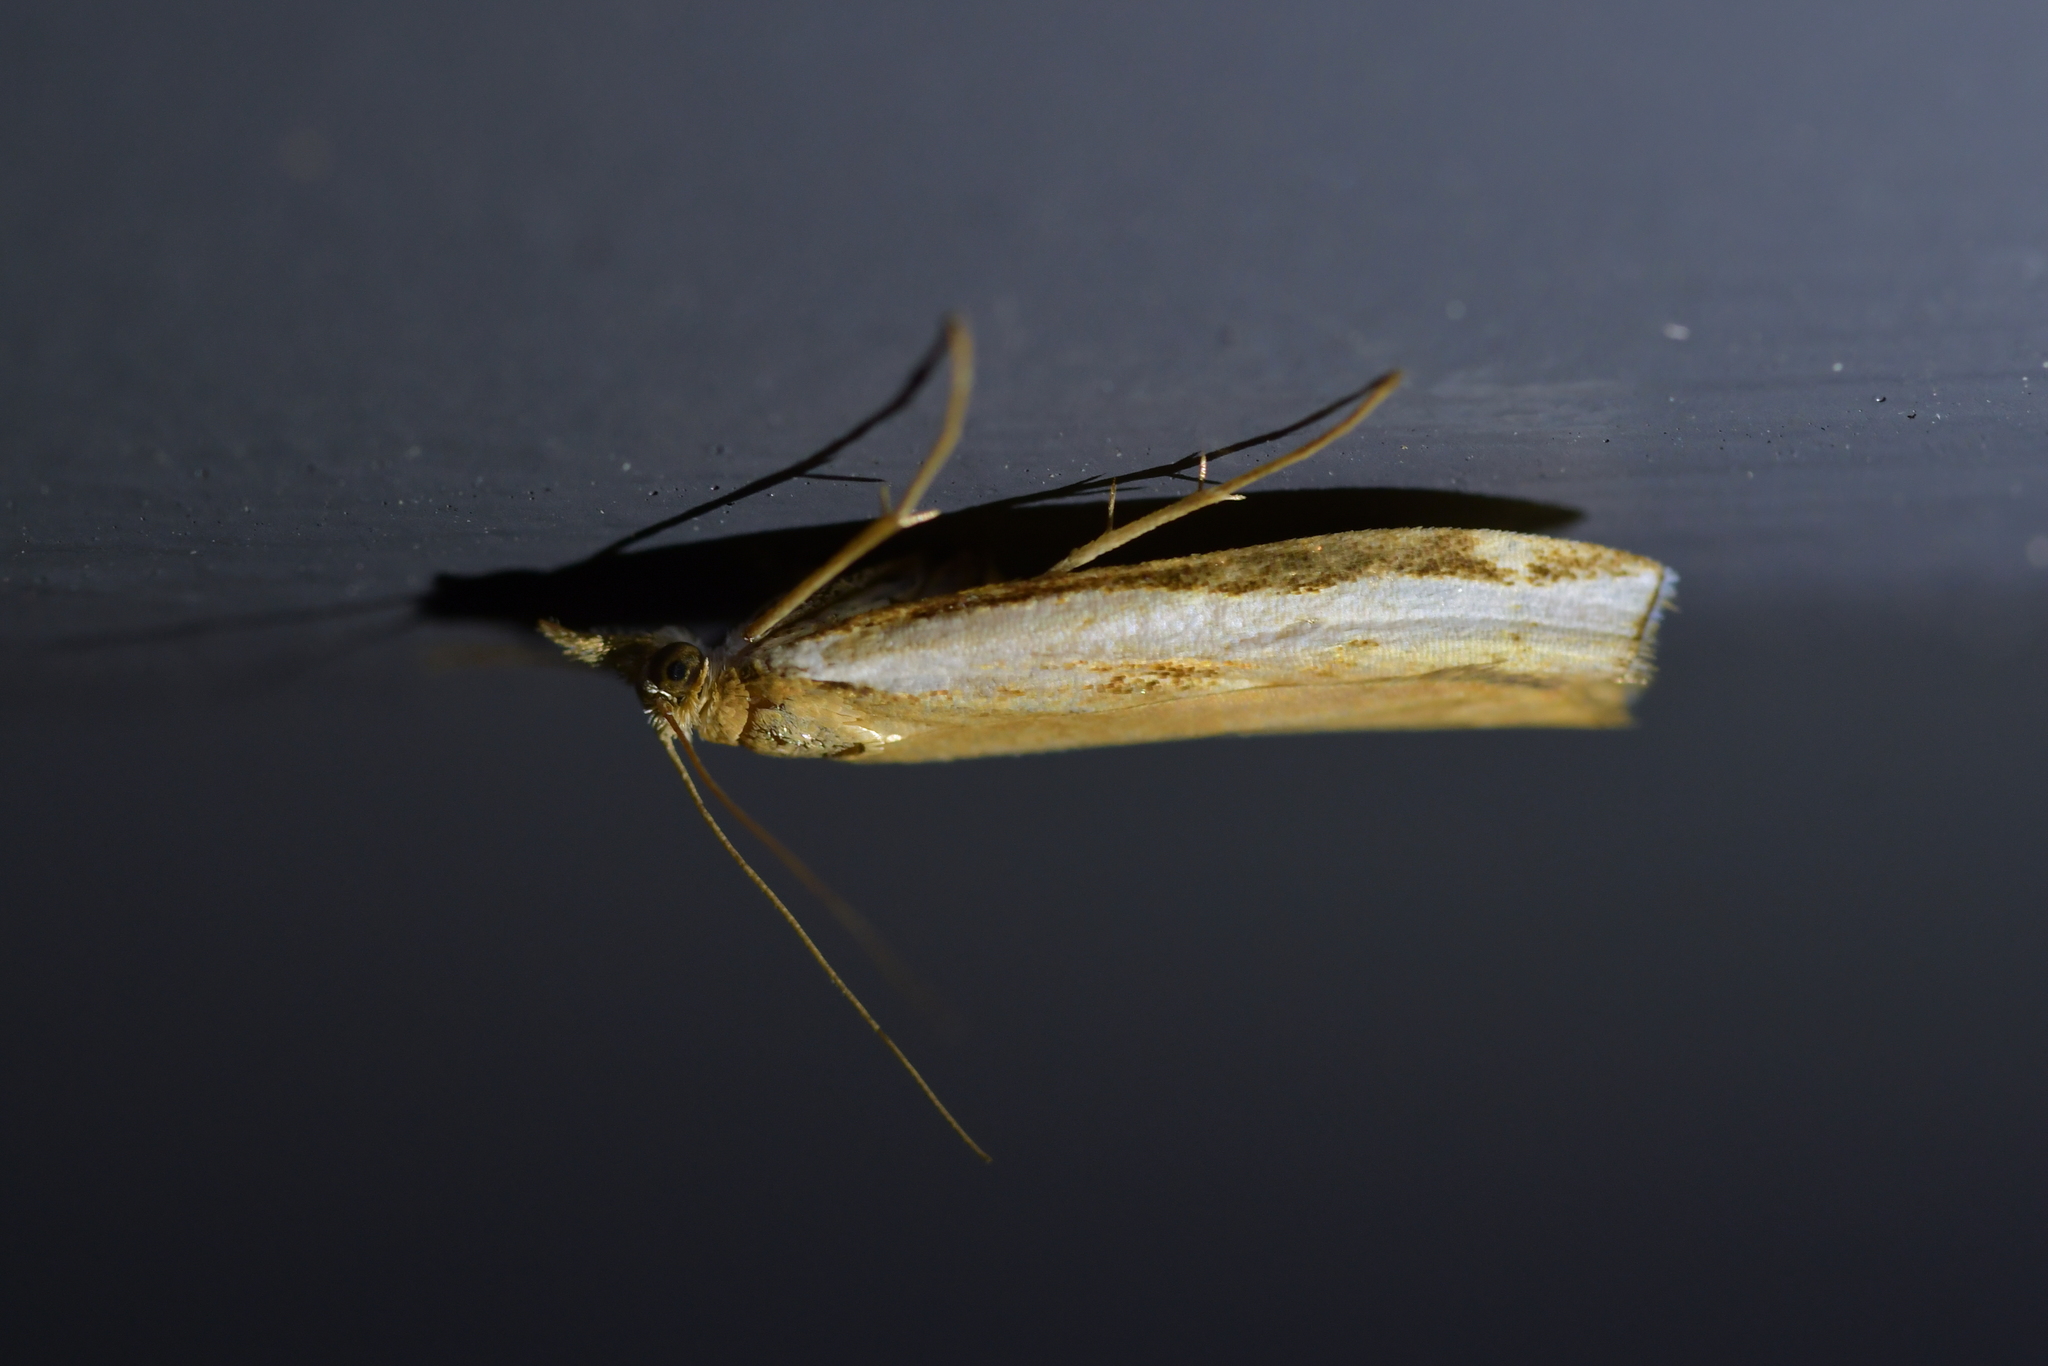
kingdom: Animalia
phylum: Arthropoda
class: Insecta
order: Lepidoptera
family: Crambidae
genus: Orocrambus
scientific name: Orocrambus flexuosellus
